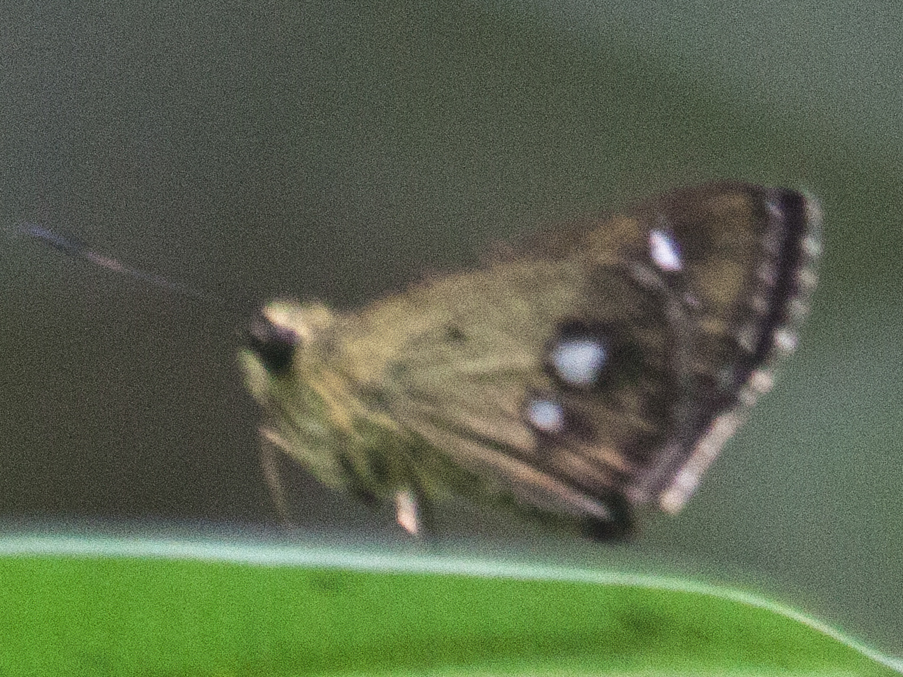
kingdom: Animalia
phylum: Arthropoda
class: Insecta
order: Lepidoptera
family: Hesperiidae
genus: Scobura
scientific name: Scobura isota
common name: Swinhoe's forest bob
